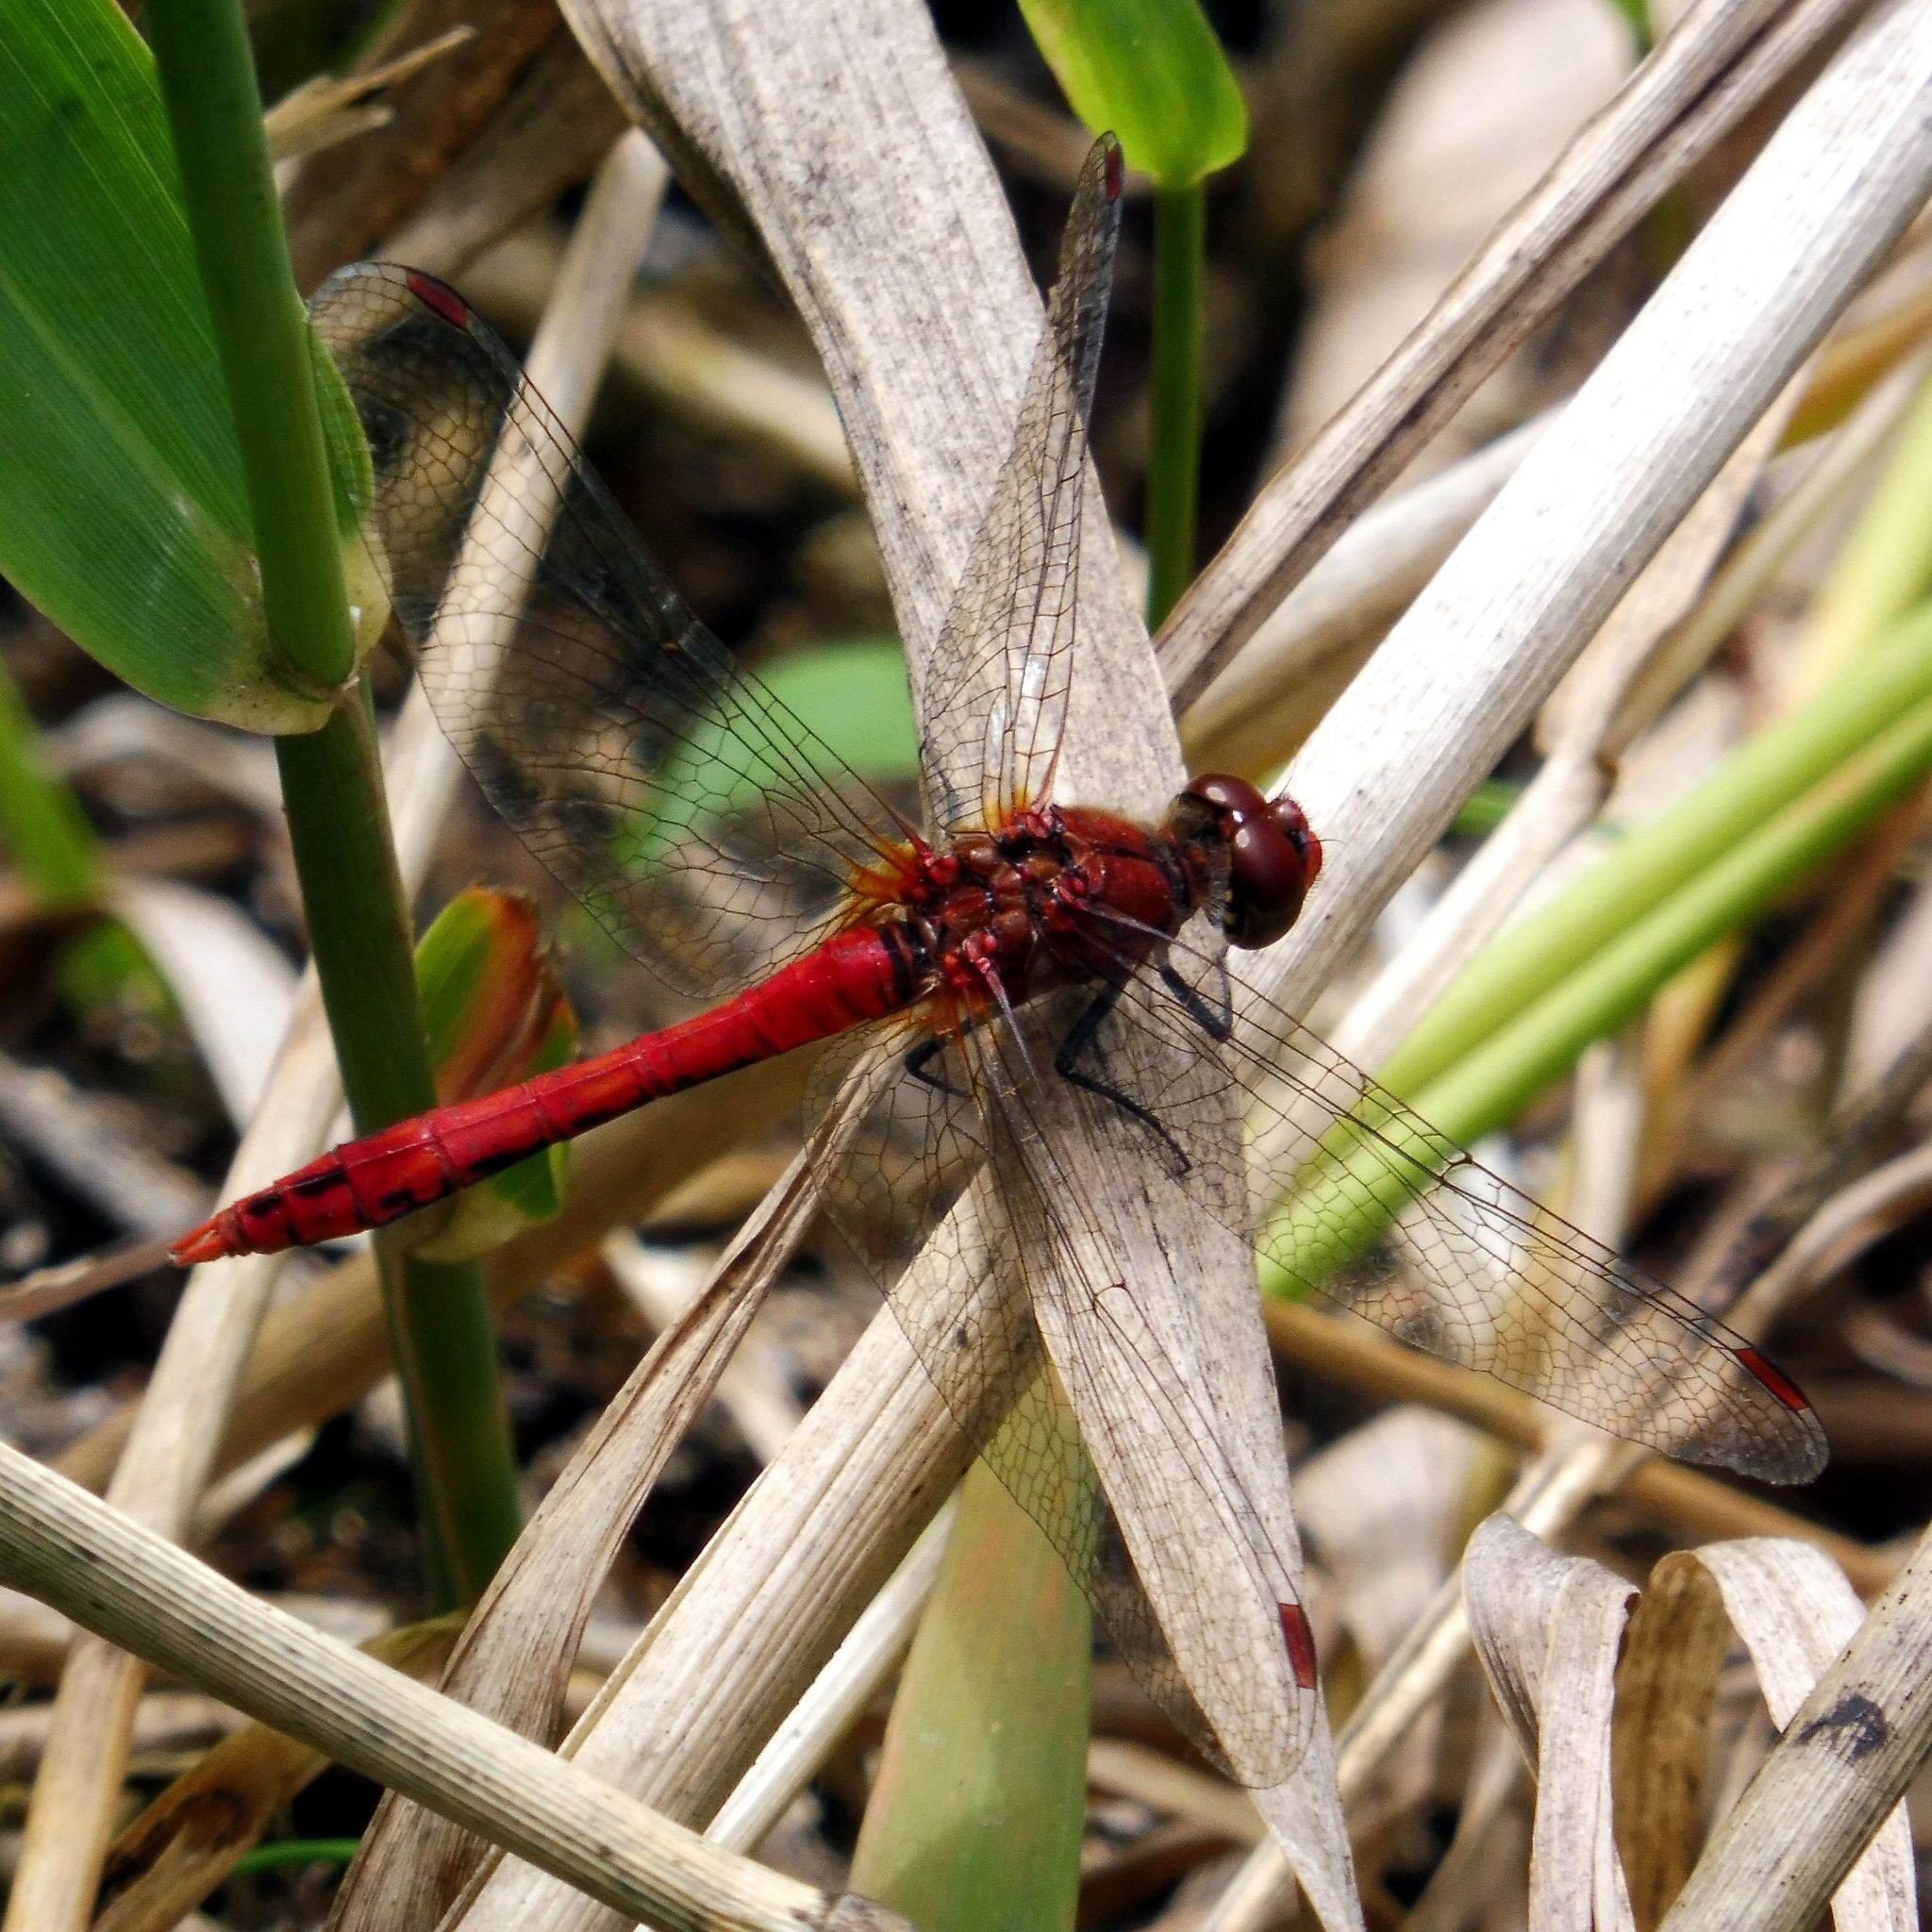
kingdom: Animalia
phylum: Arthropoda
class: Insecta
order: Odonata
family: Libellulidae
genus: Sympetrum
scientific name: Sympetrum sanguineum
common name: Ruddy darter
